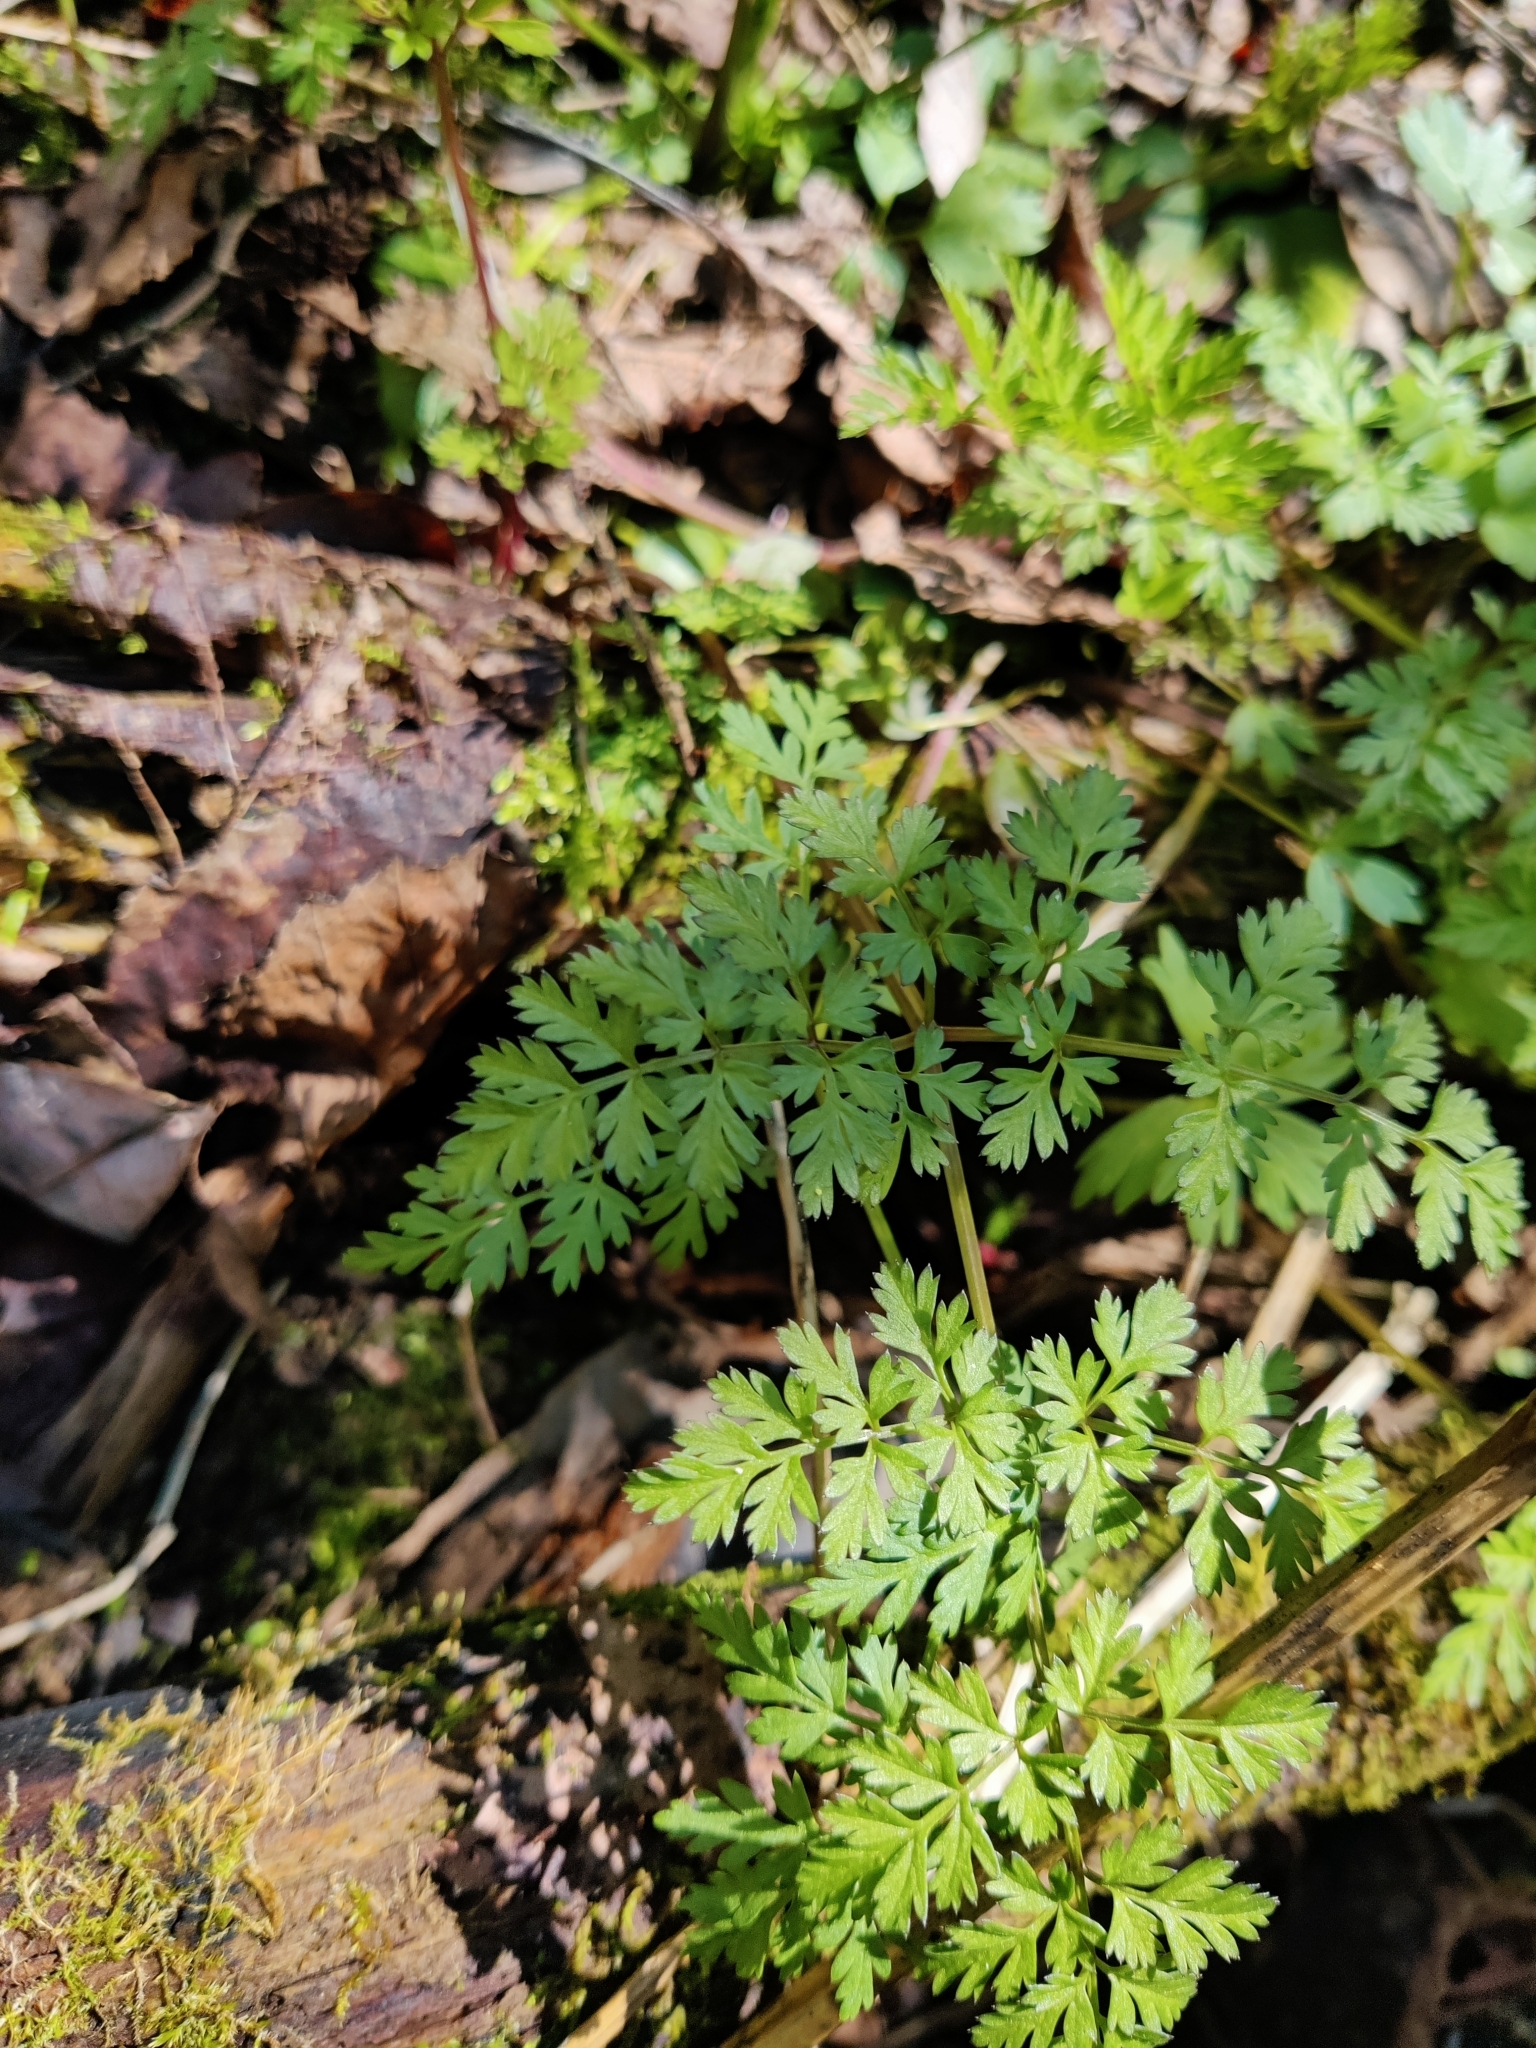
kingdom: Plantae
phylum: Tracheophyta
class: Magnoliopsida
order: Apiales
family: Apiaceae
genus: Anthriscus
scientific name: Anthriscus sylvestris
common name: Cow parsley
